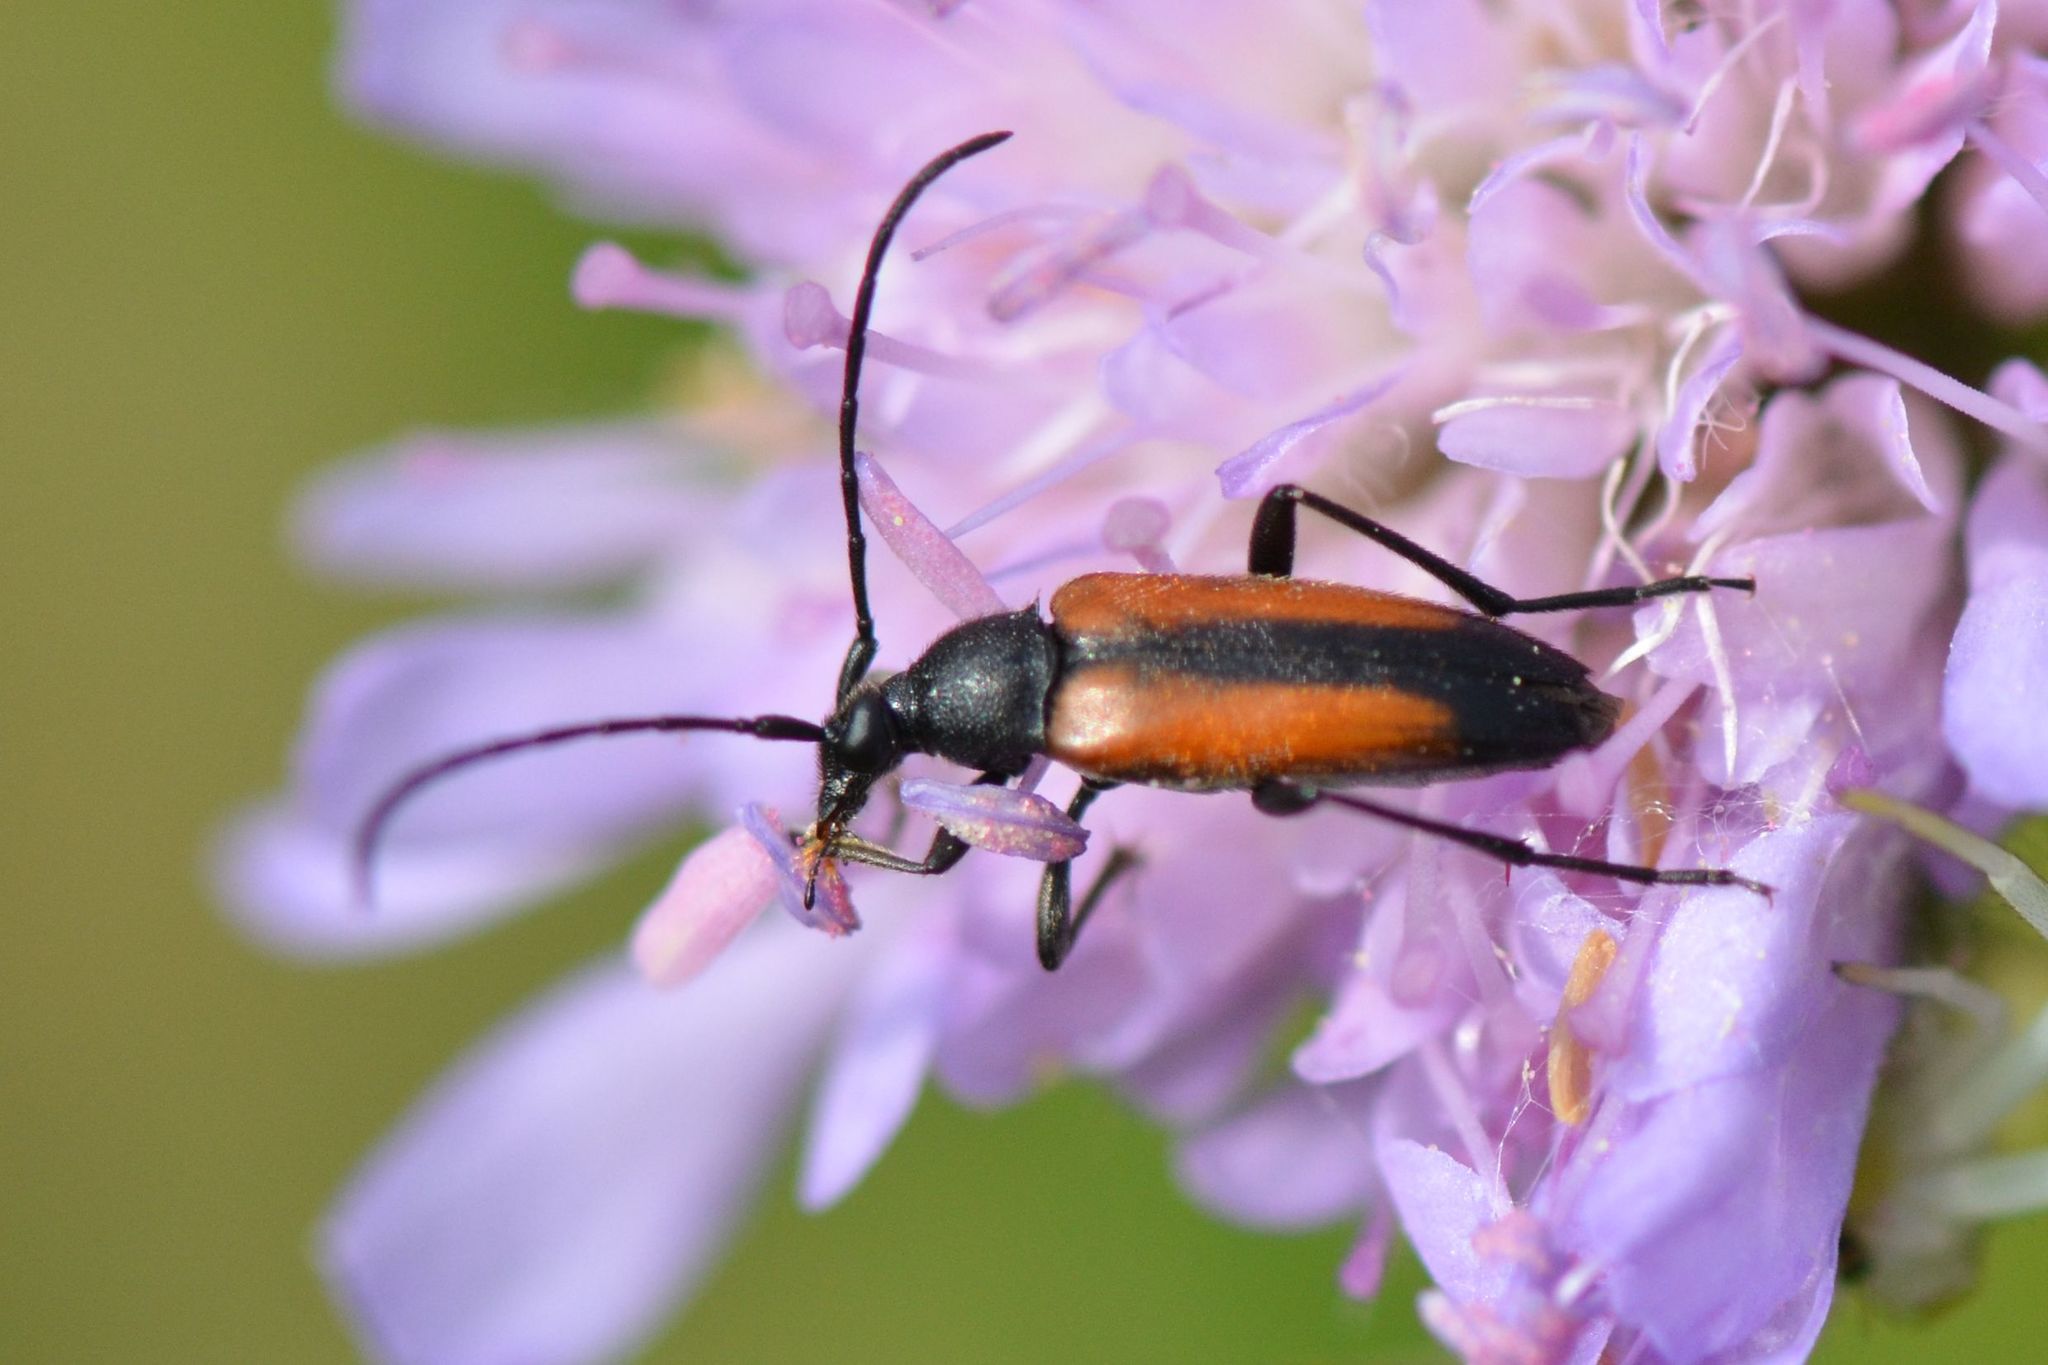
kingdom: Animalia
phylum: Arthropoda
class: Insecta
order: Coleoptera
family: Cerambycidae
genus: Stenurella
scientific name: Stenurella melanura
